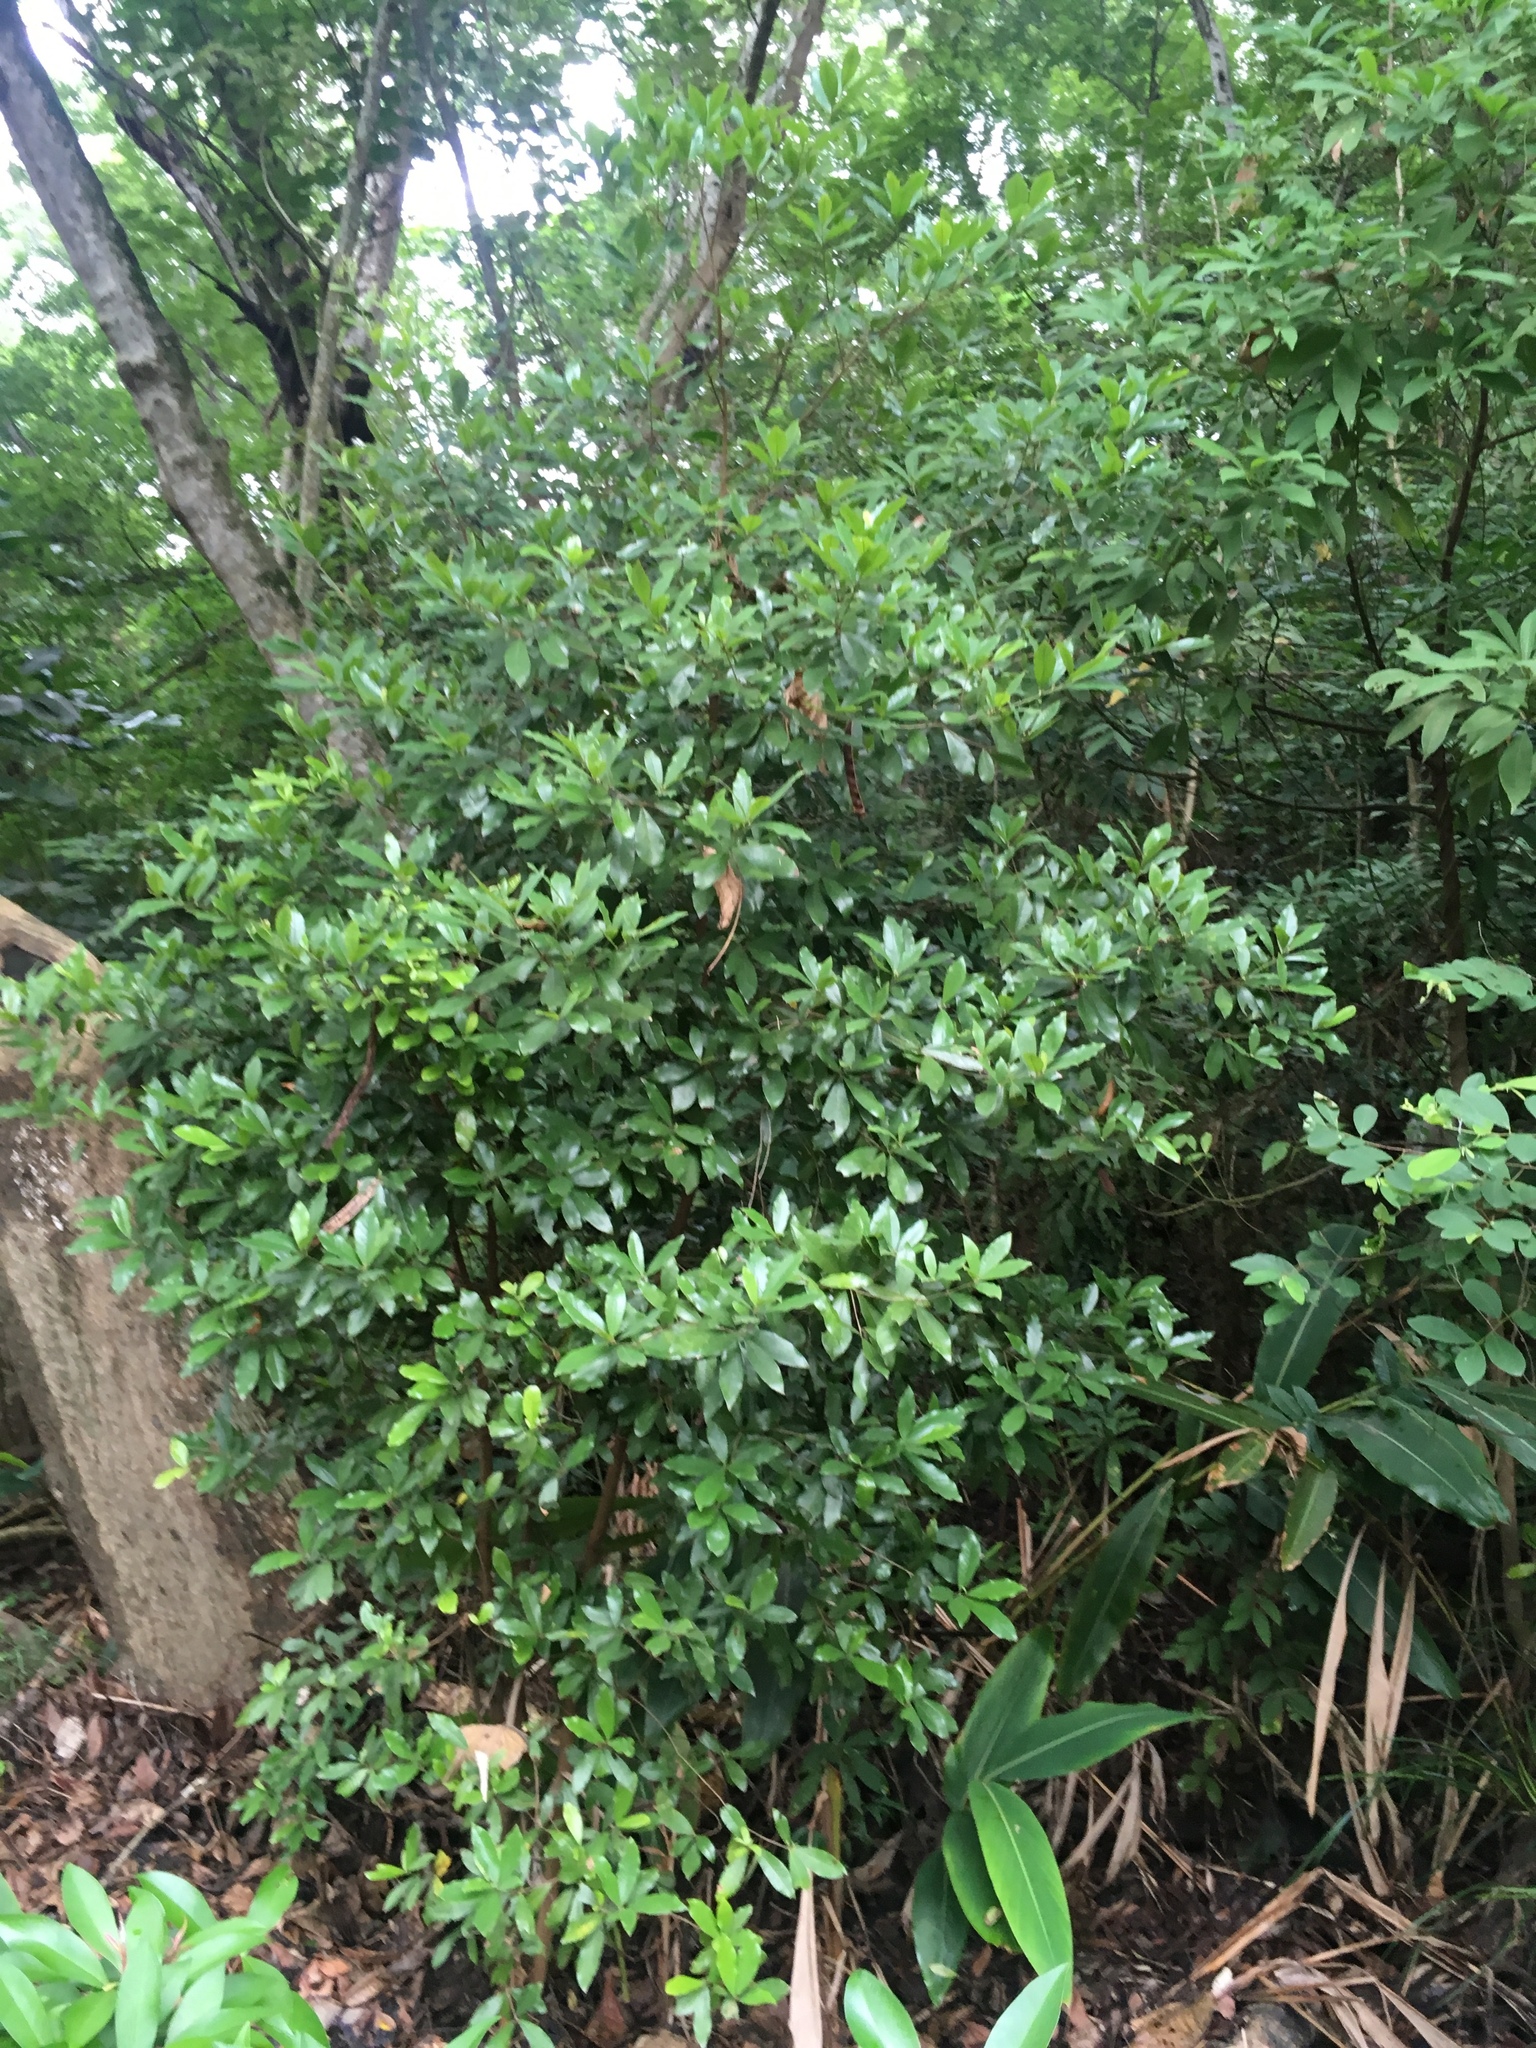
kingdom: Plantae
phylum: Tracheophyta
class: Magnoliopsida
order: Laurales
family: Lauraceae
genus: Litsea
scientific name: Litsea hypophaea
